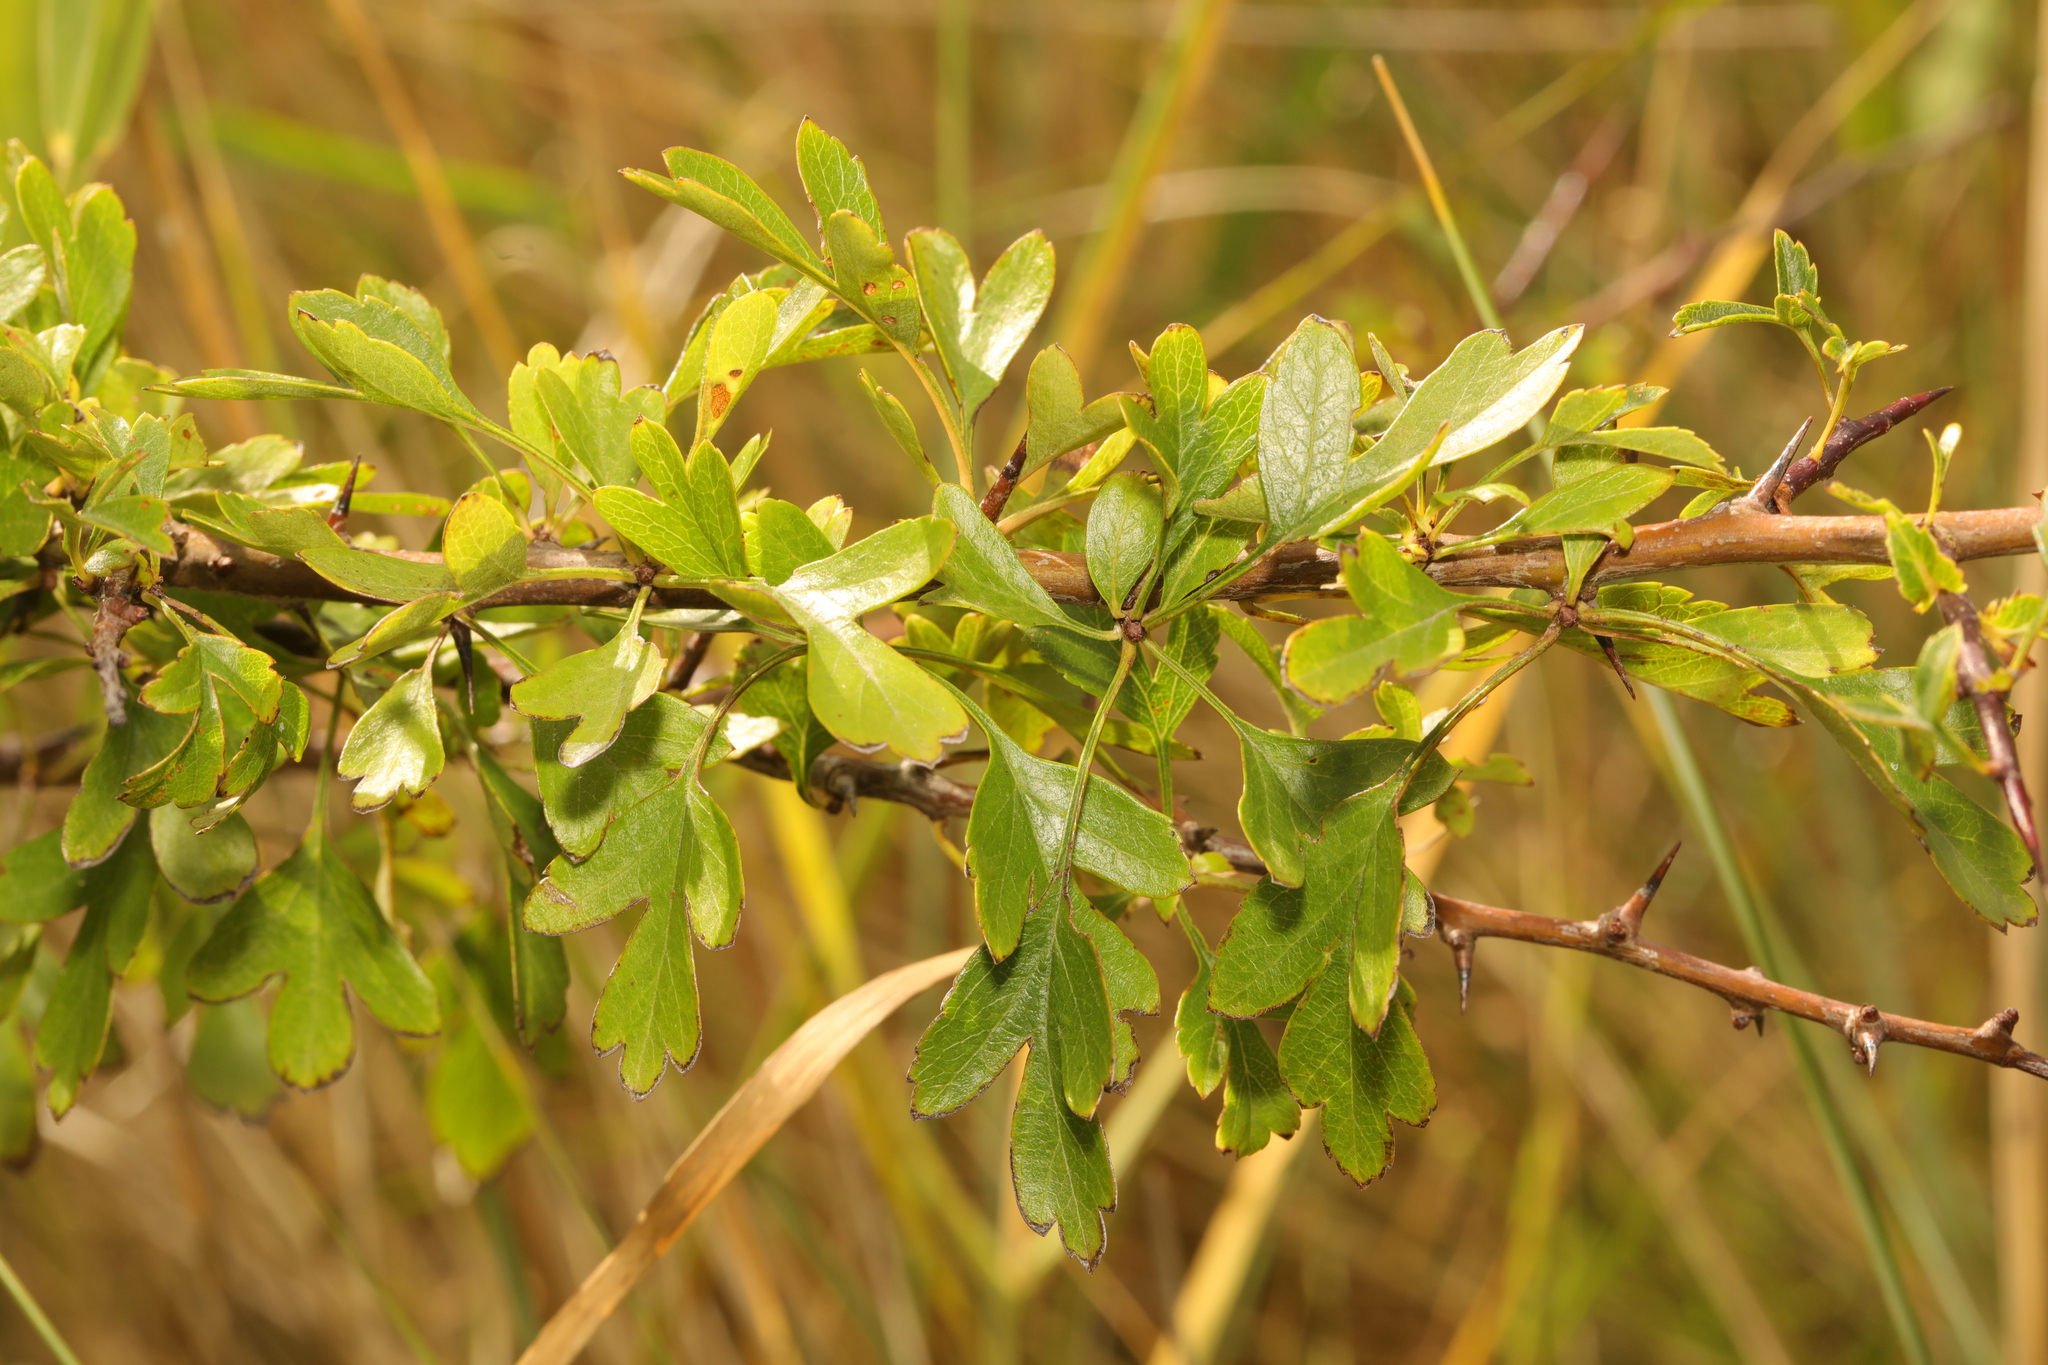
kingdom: Plantae
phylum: Tracheophyta
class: Magnoliopsida
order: Rosales
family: Rosaceae
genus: Crataegus
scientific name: Crataegus monogyna
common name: Hawthorn
